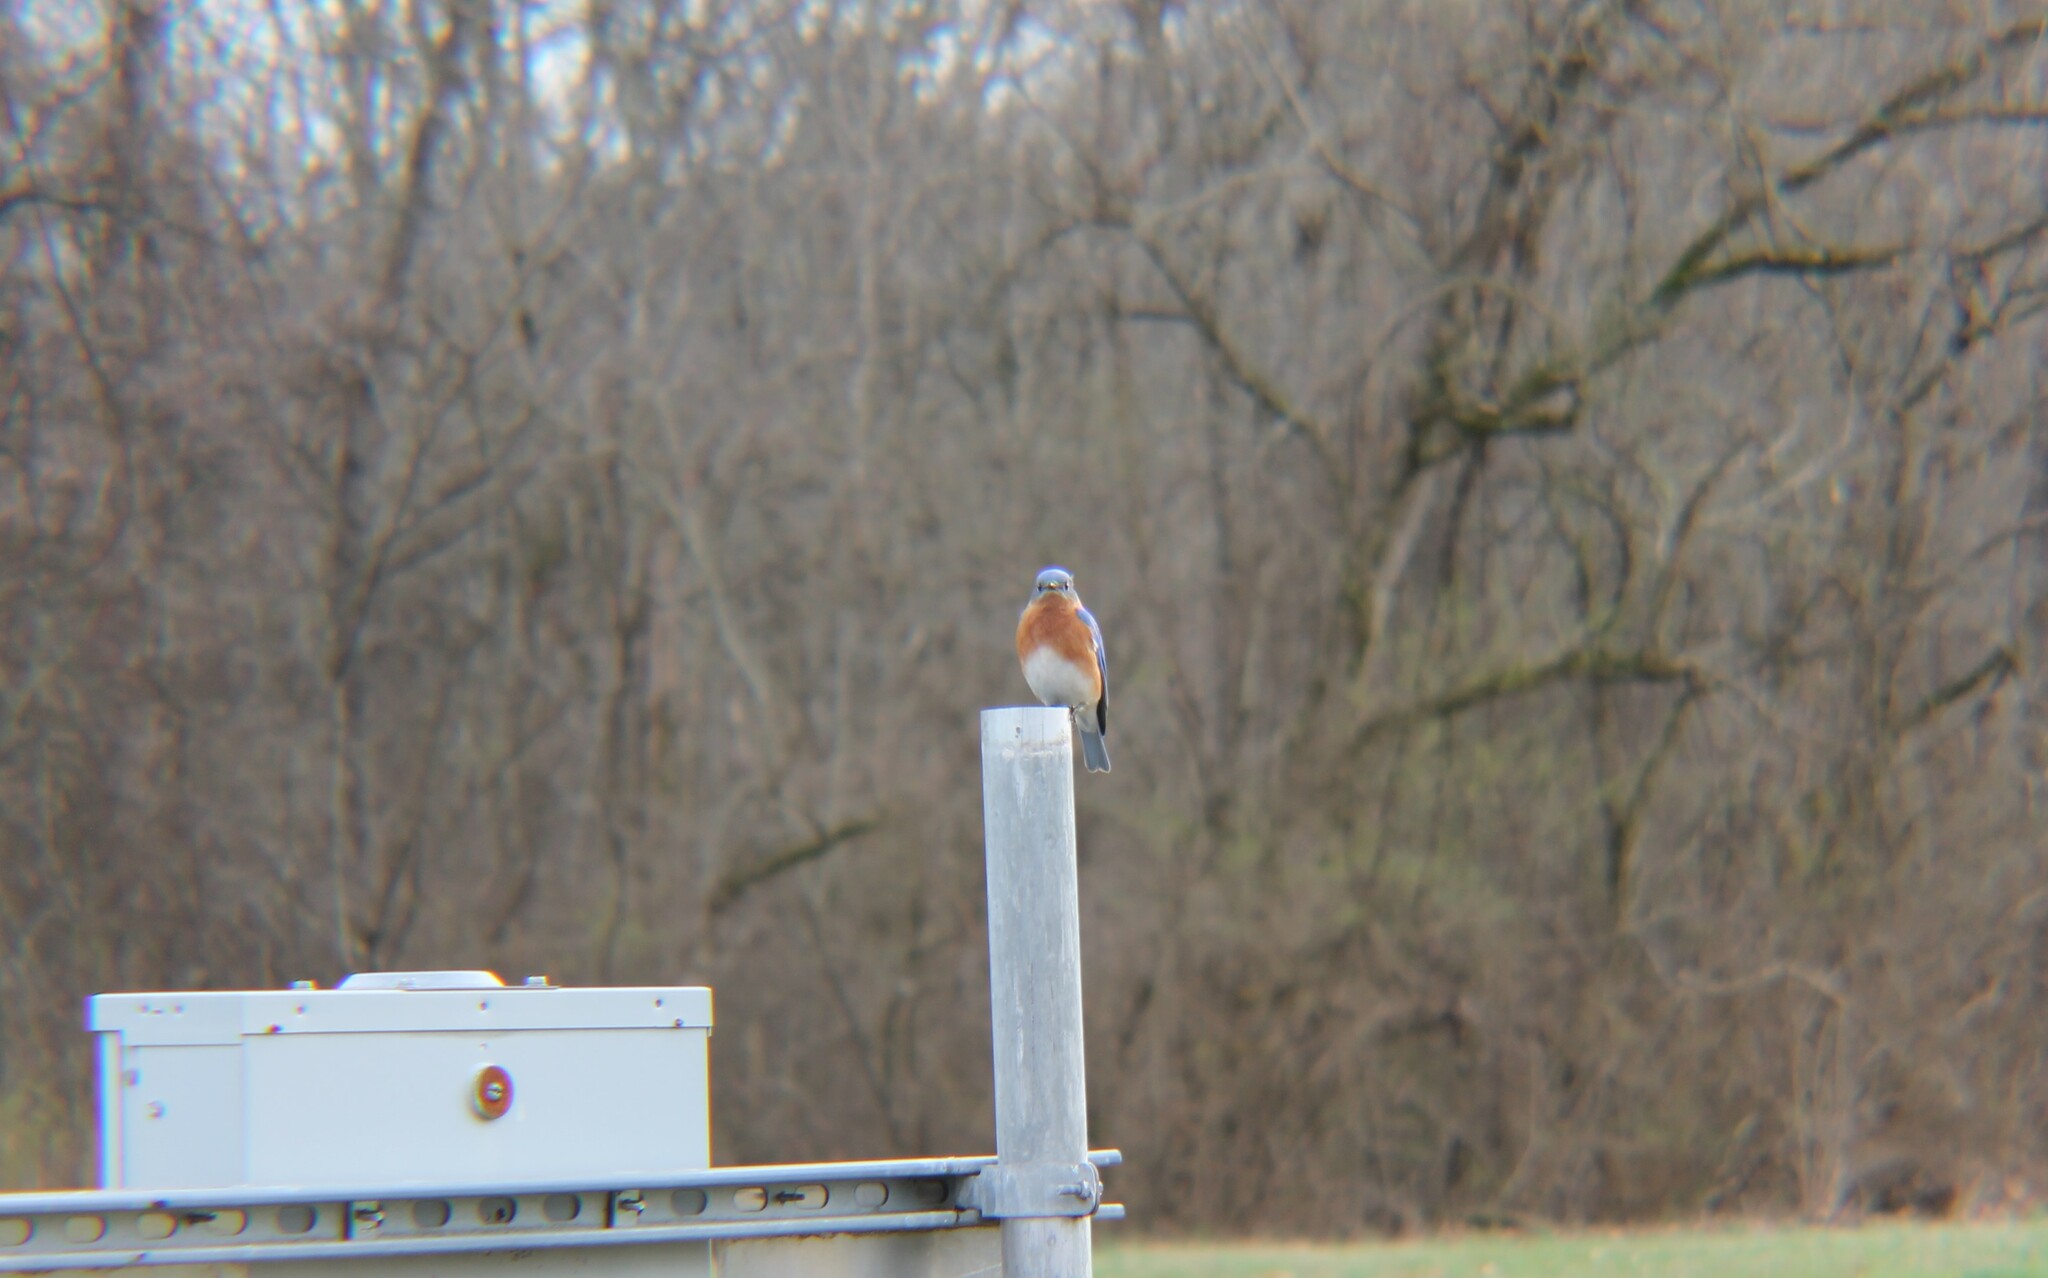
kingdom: Animalia
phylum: Chordata
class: Aves
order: Passeriformes
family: Turdidae
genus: Sialia
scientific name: Sialia sialis
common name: Eastern bluebird
